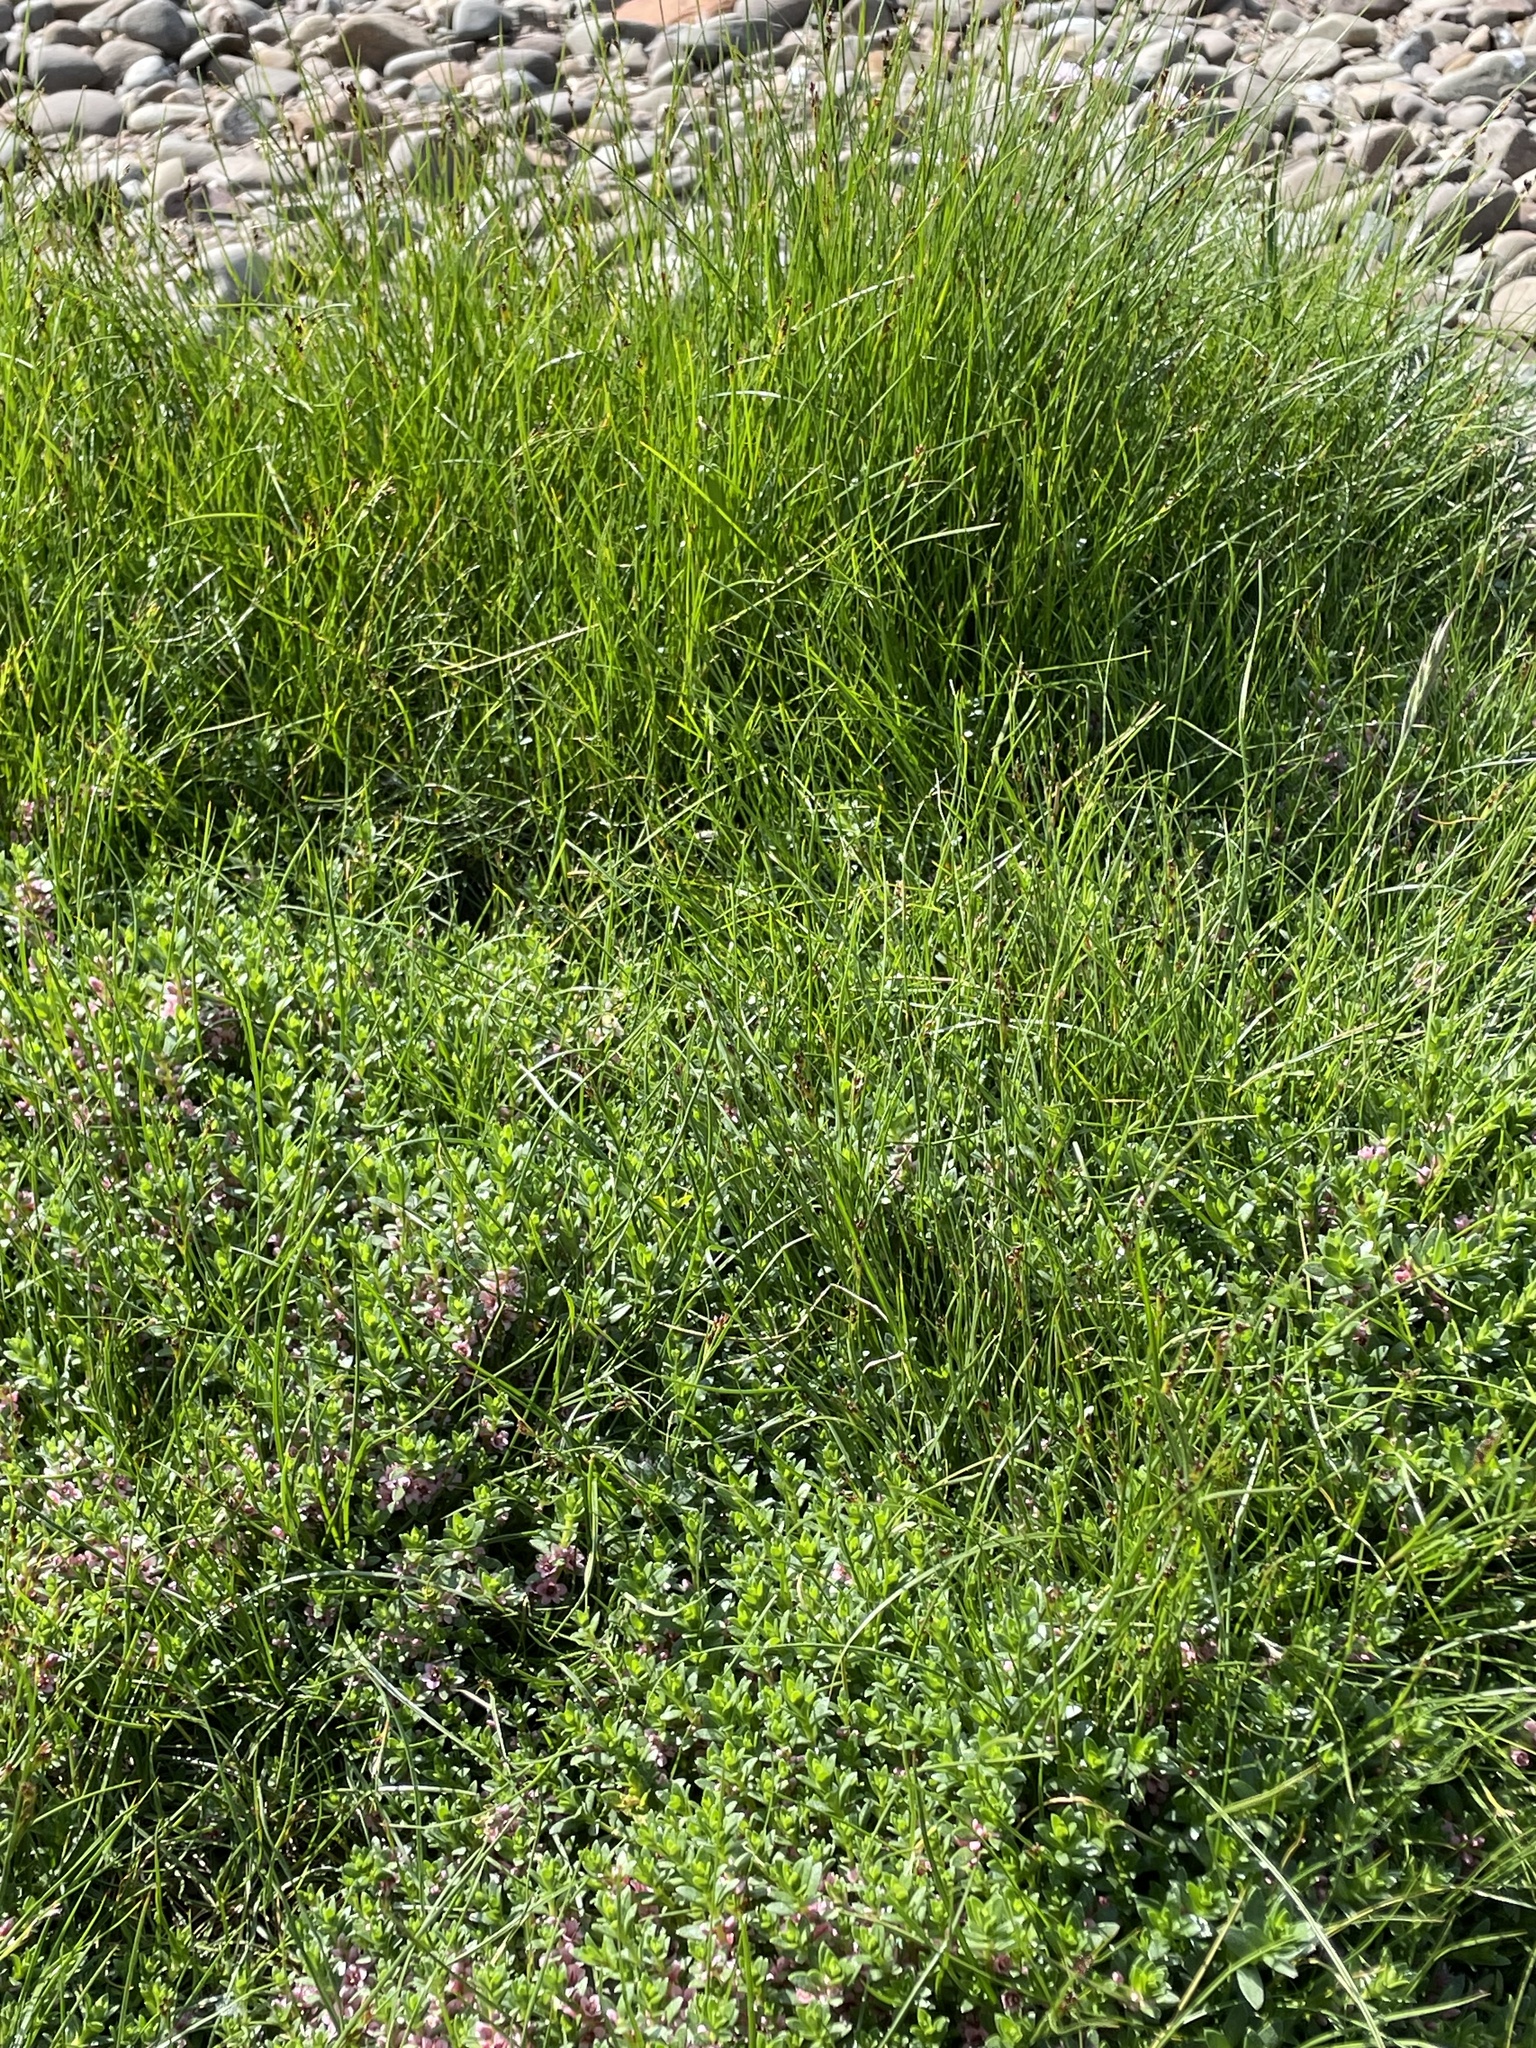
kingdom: Plantae
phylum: Tracheophyta
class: Magnoliopsida
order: Ericales
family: Primulaceae
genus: Lysimachia
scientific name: Lysimachia maritima
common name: Sea milkwort
